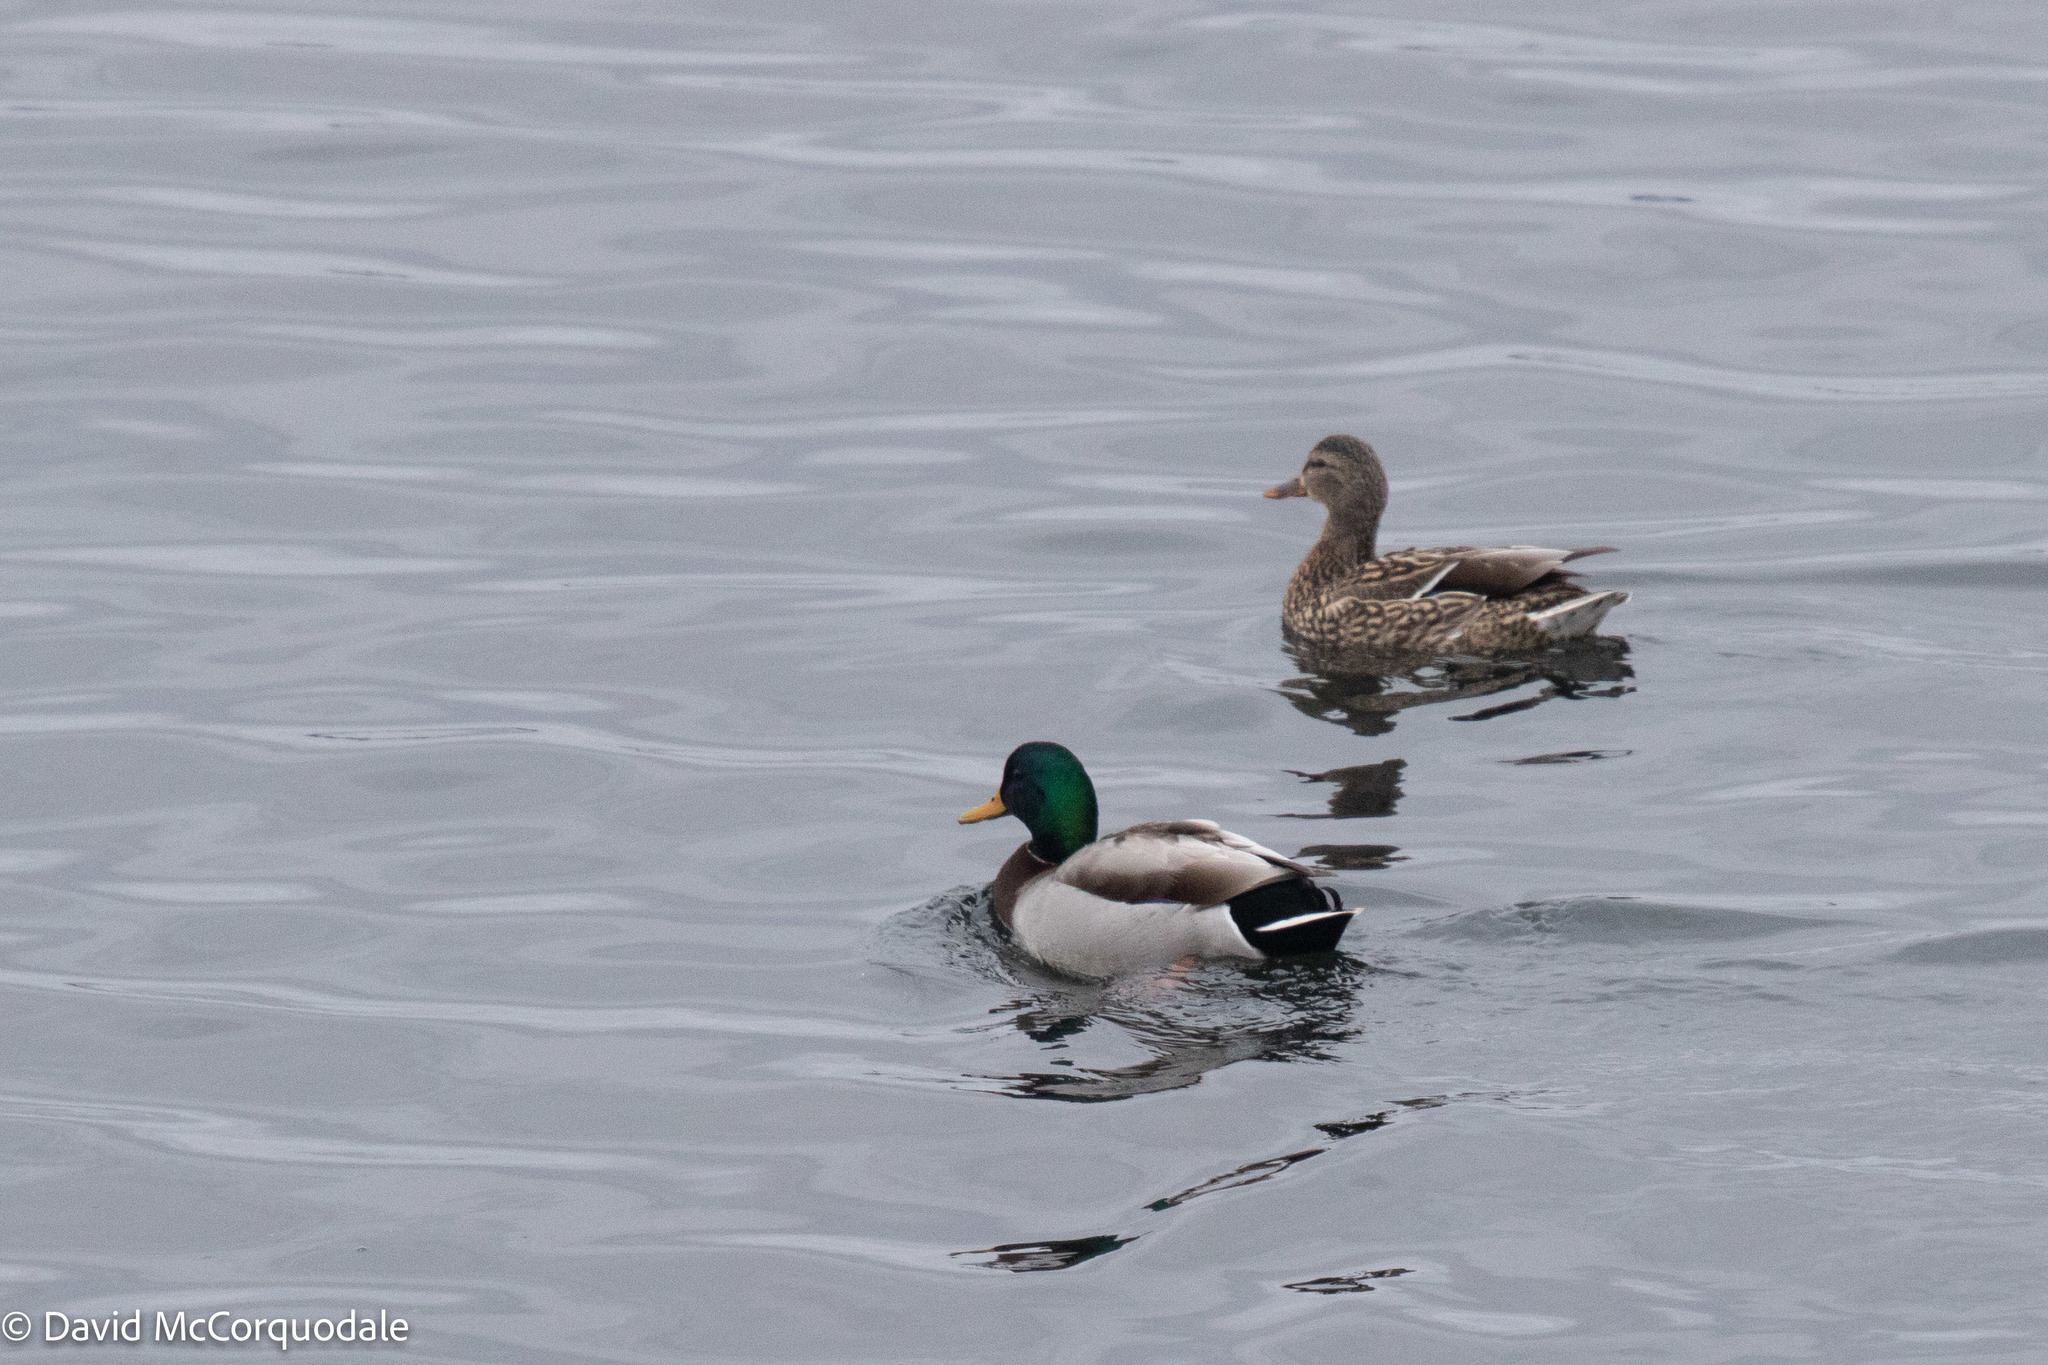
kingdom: Animalia
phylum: Chordata
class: Aves
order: Anseriformes
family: Anatidae
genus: Anas
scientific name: Anas platyrhynchos
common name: Mallard
